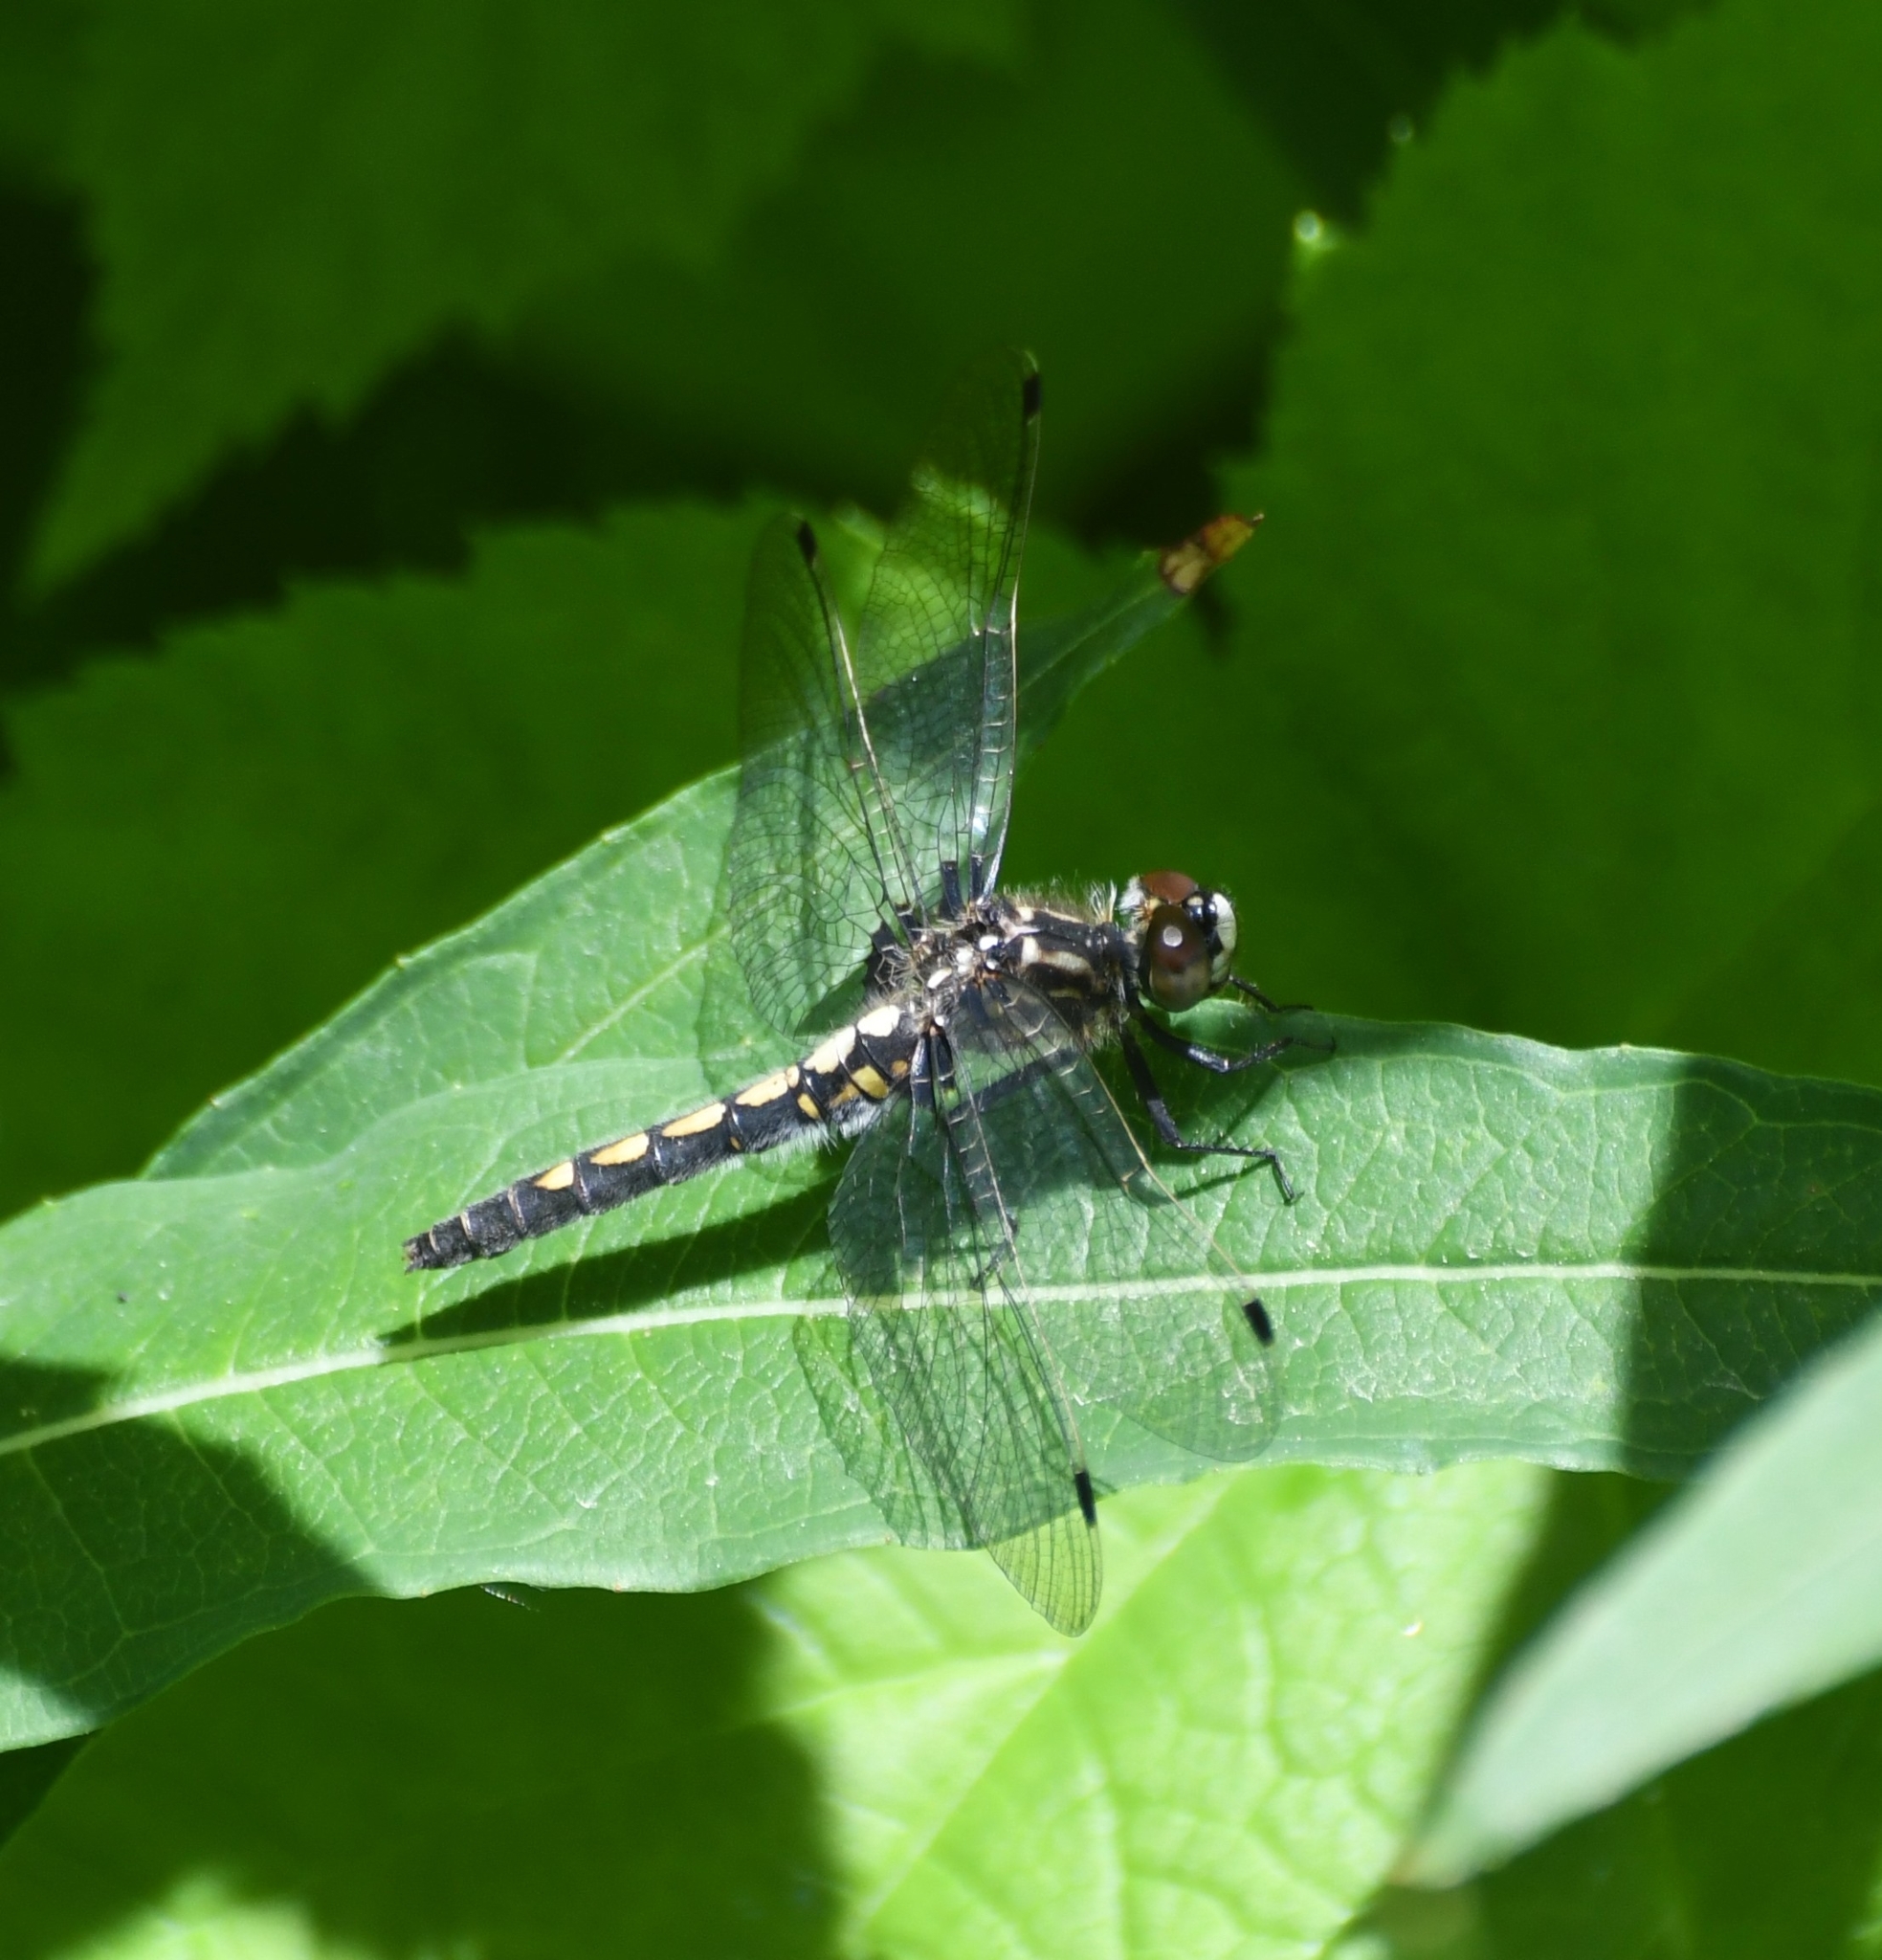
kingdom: Animalia
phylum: Arthropoda
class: Insecta
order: Odonata
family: Libellulidae
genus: Leucorrhinia
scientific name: Leucorrhinia hudsonica
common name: Hudsonian whiteface
